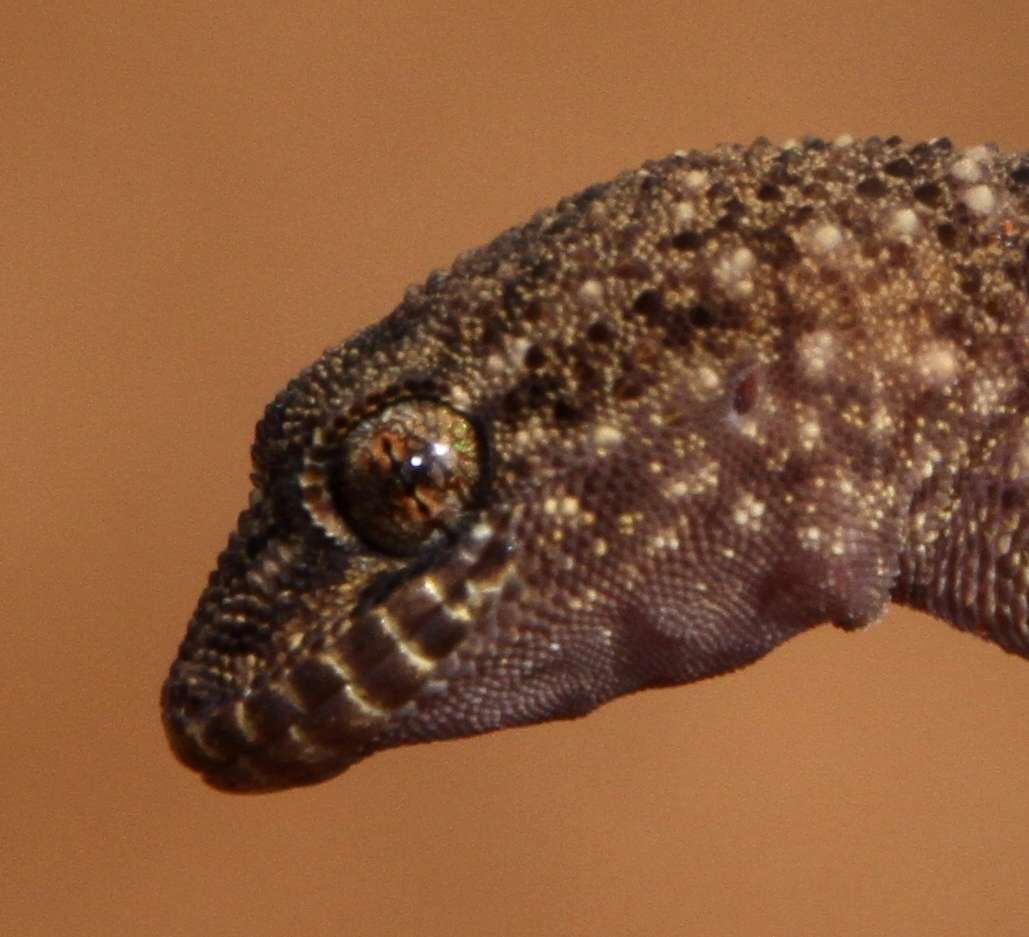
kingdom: Animalia
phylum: Chordata
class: Squamata
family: Gekkonidae
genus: Heteronotia
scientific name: Heteronotia binoei
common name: Bynoe's gecko
